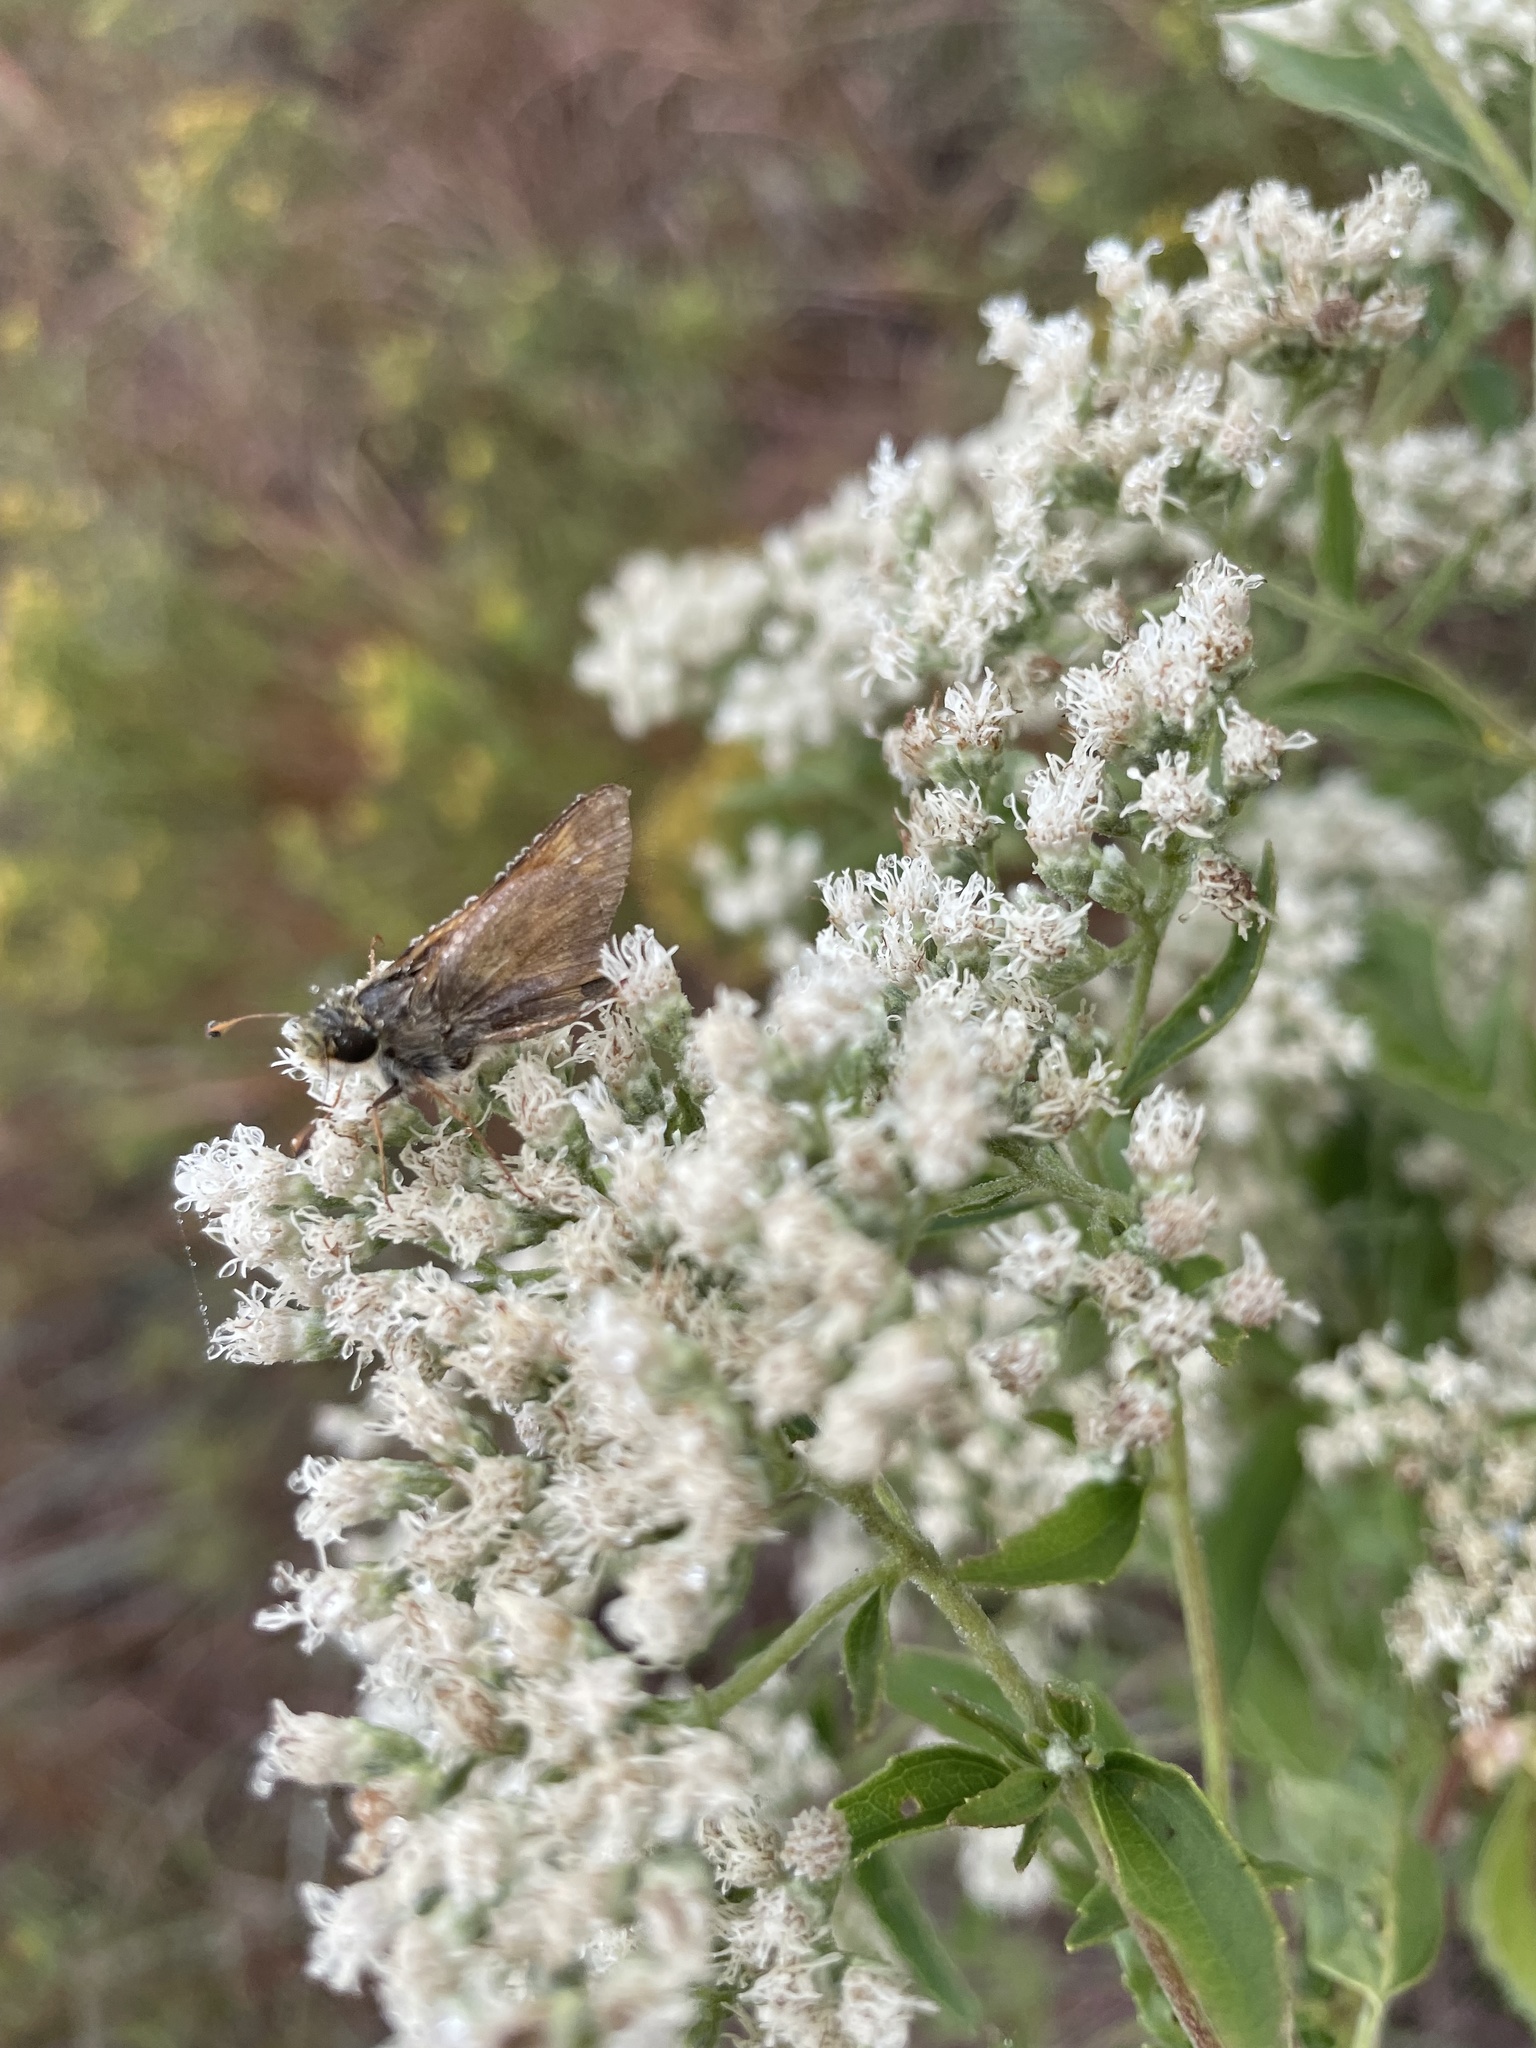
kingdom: Animalia
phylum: Arthropoda
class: Insecta
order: Lepidoptera
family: Hesperiidae
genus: Atalopedes
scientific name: Atalopedes
